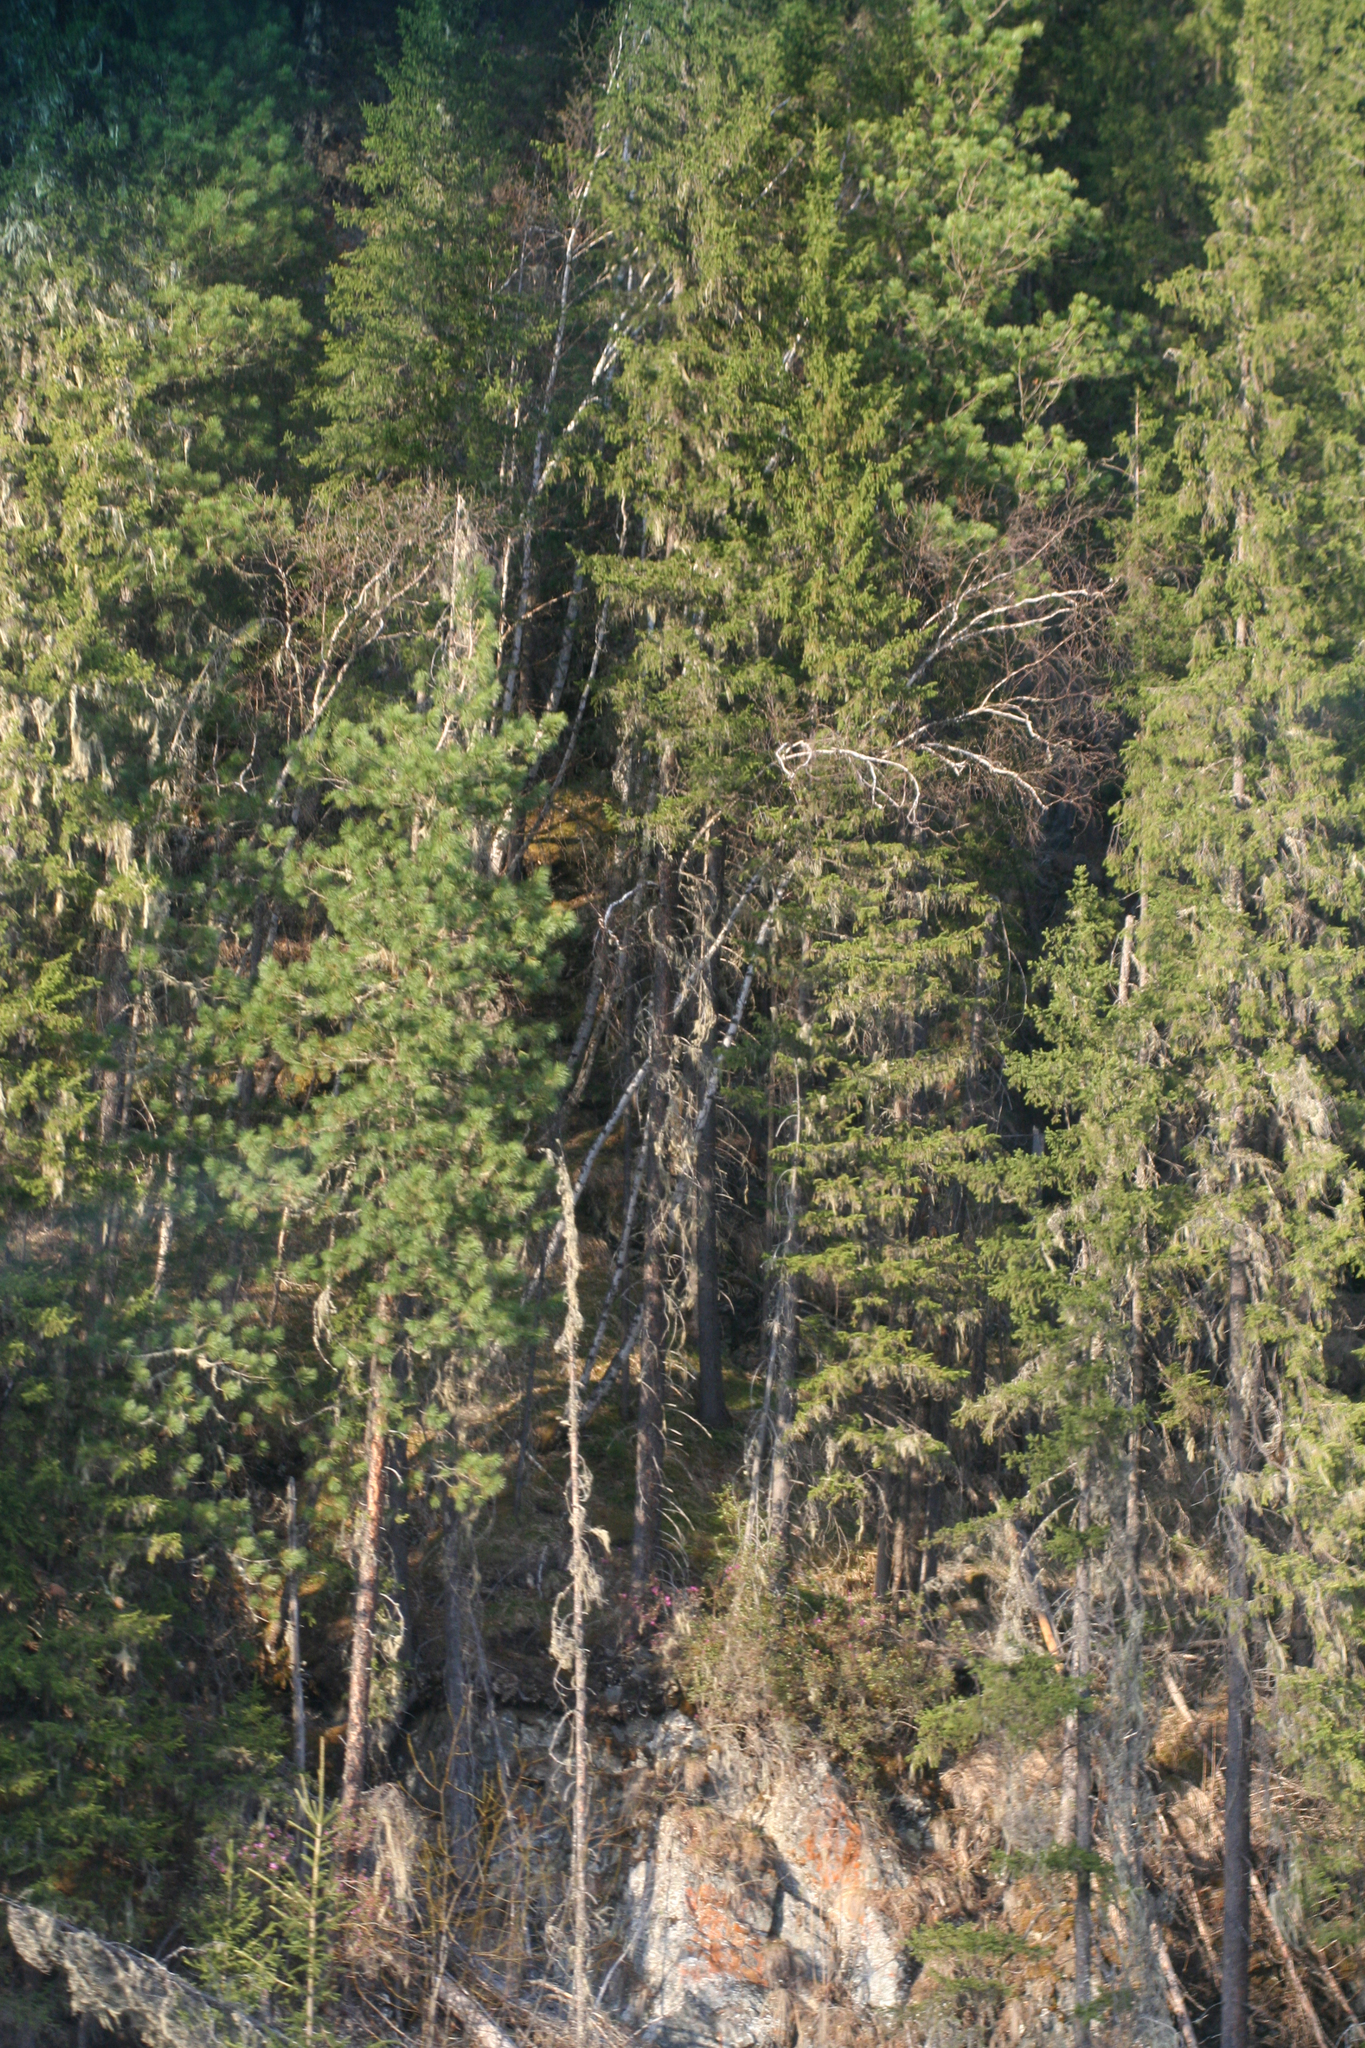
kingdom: Plantae
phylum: Tracheophyta
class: Pinopsida
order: Pinales
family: Pinaceae
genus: Picea
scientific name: Picea obovata
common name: Siberian spruce
